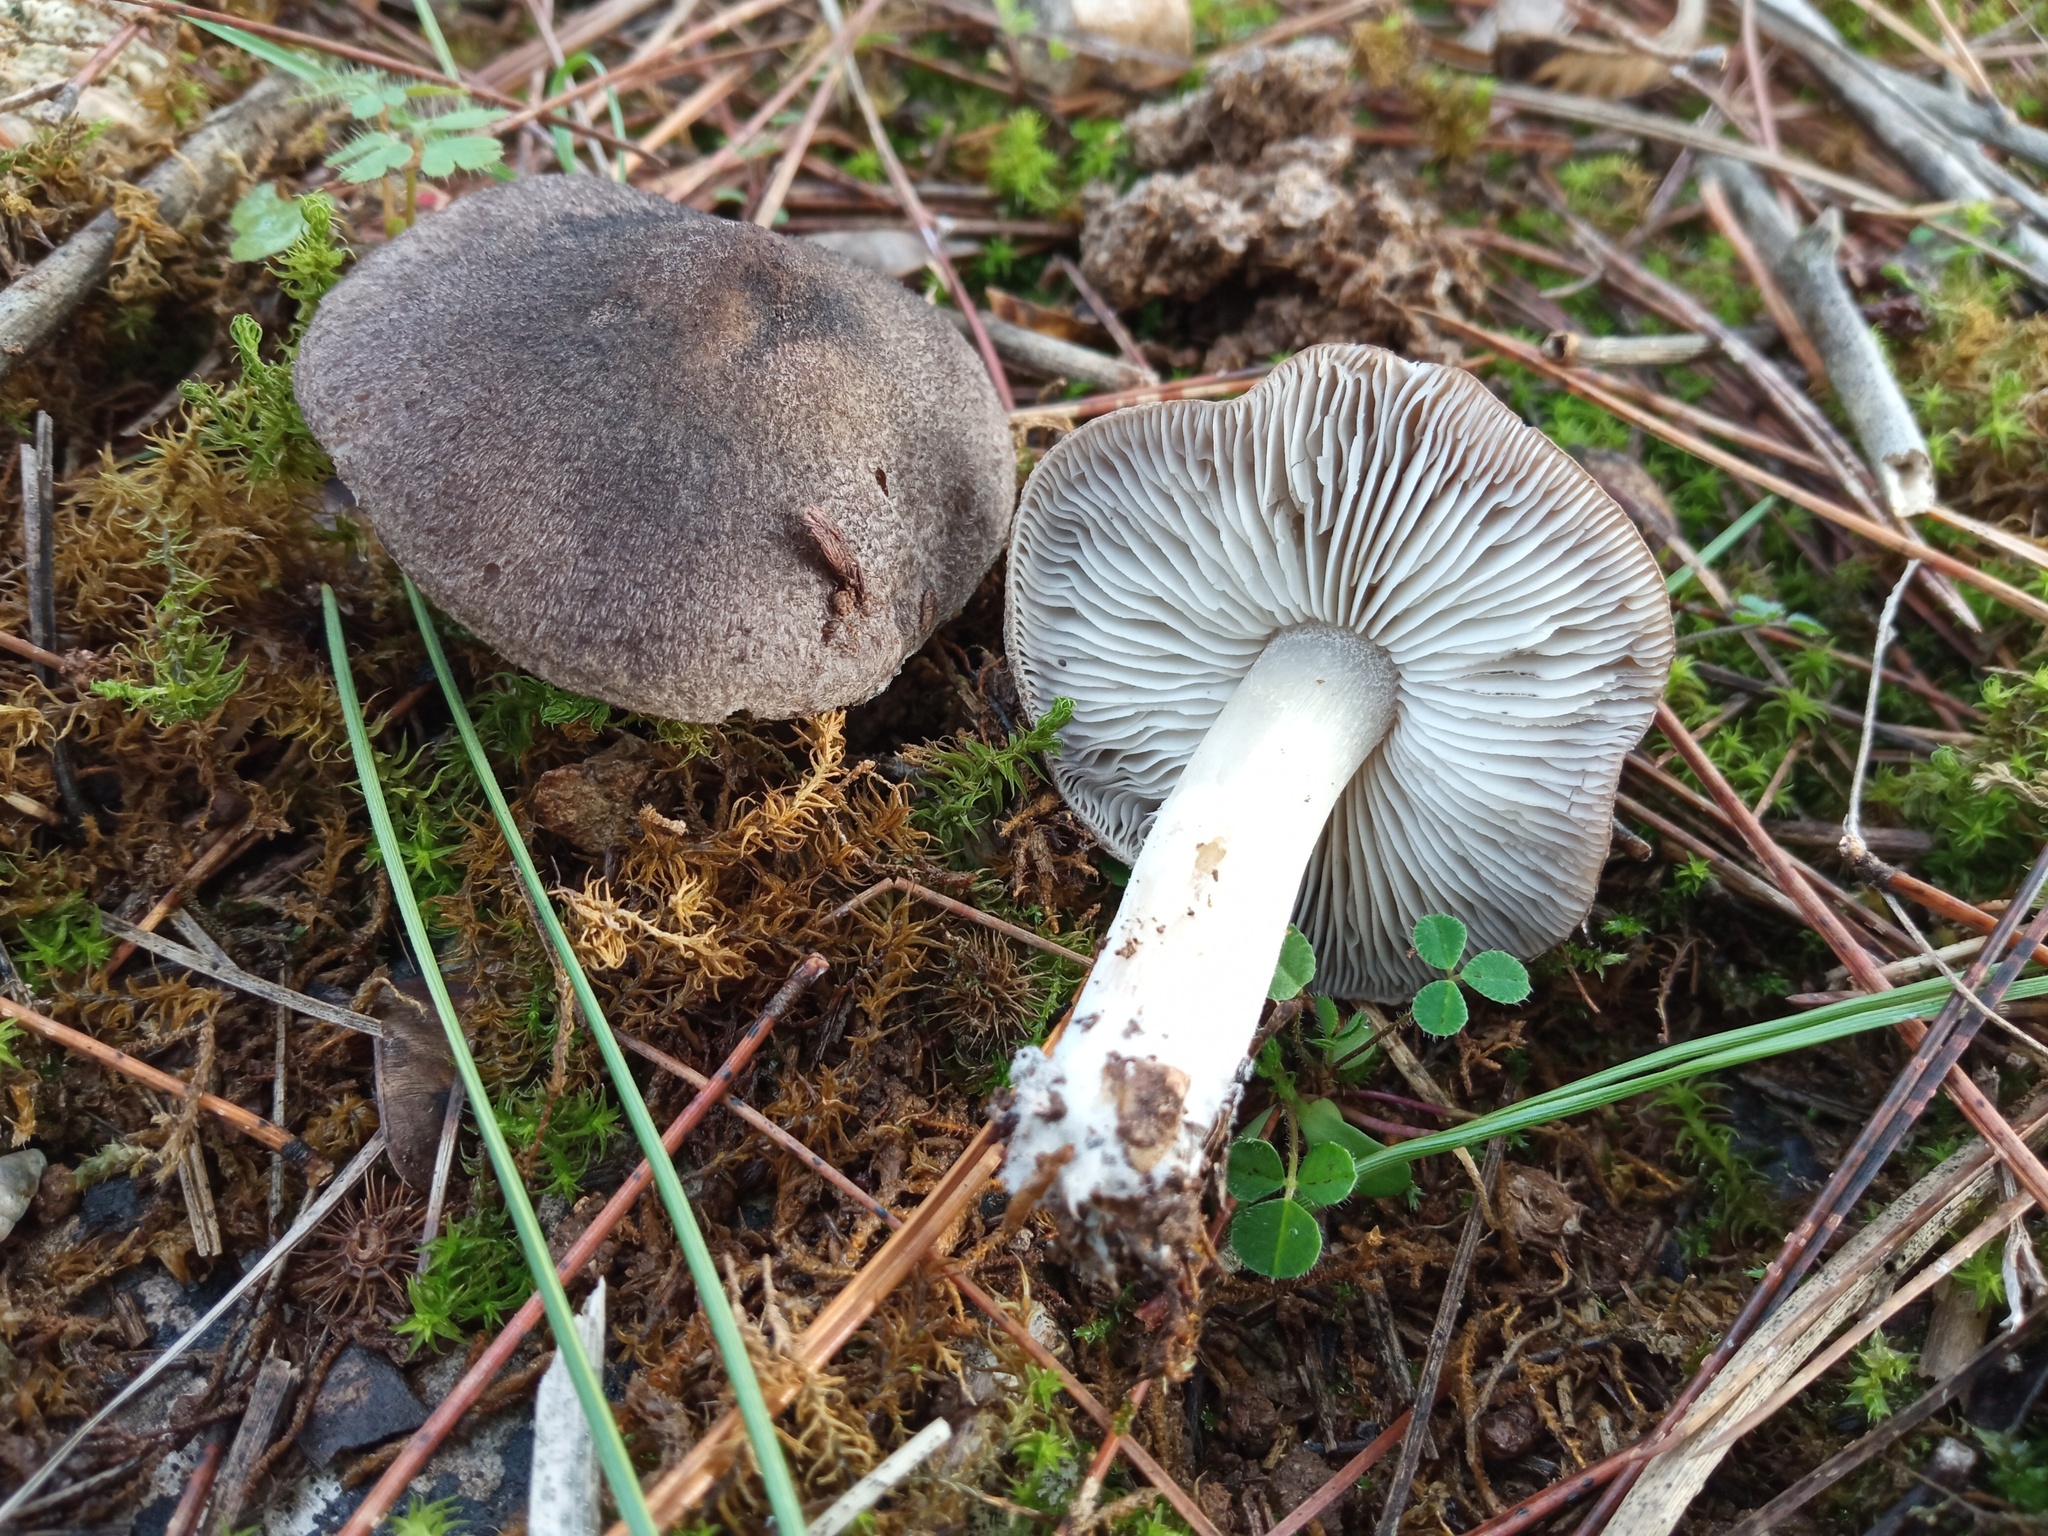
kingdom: Fungi
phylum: Basidiomycota
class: Agaricomycetes
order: Agaricales
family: Tricholomataceae
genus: Tricholoma
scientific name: Tricholoma terreum
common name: Grey knight
